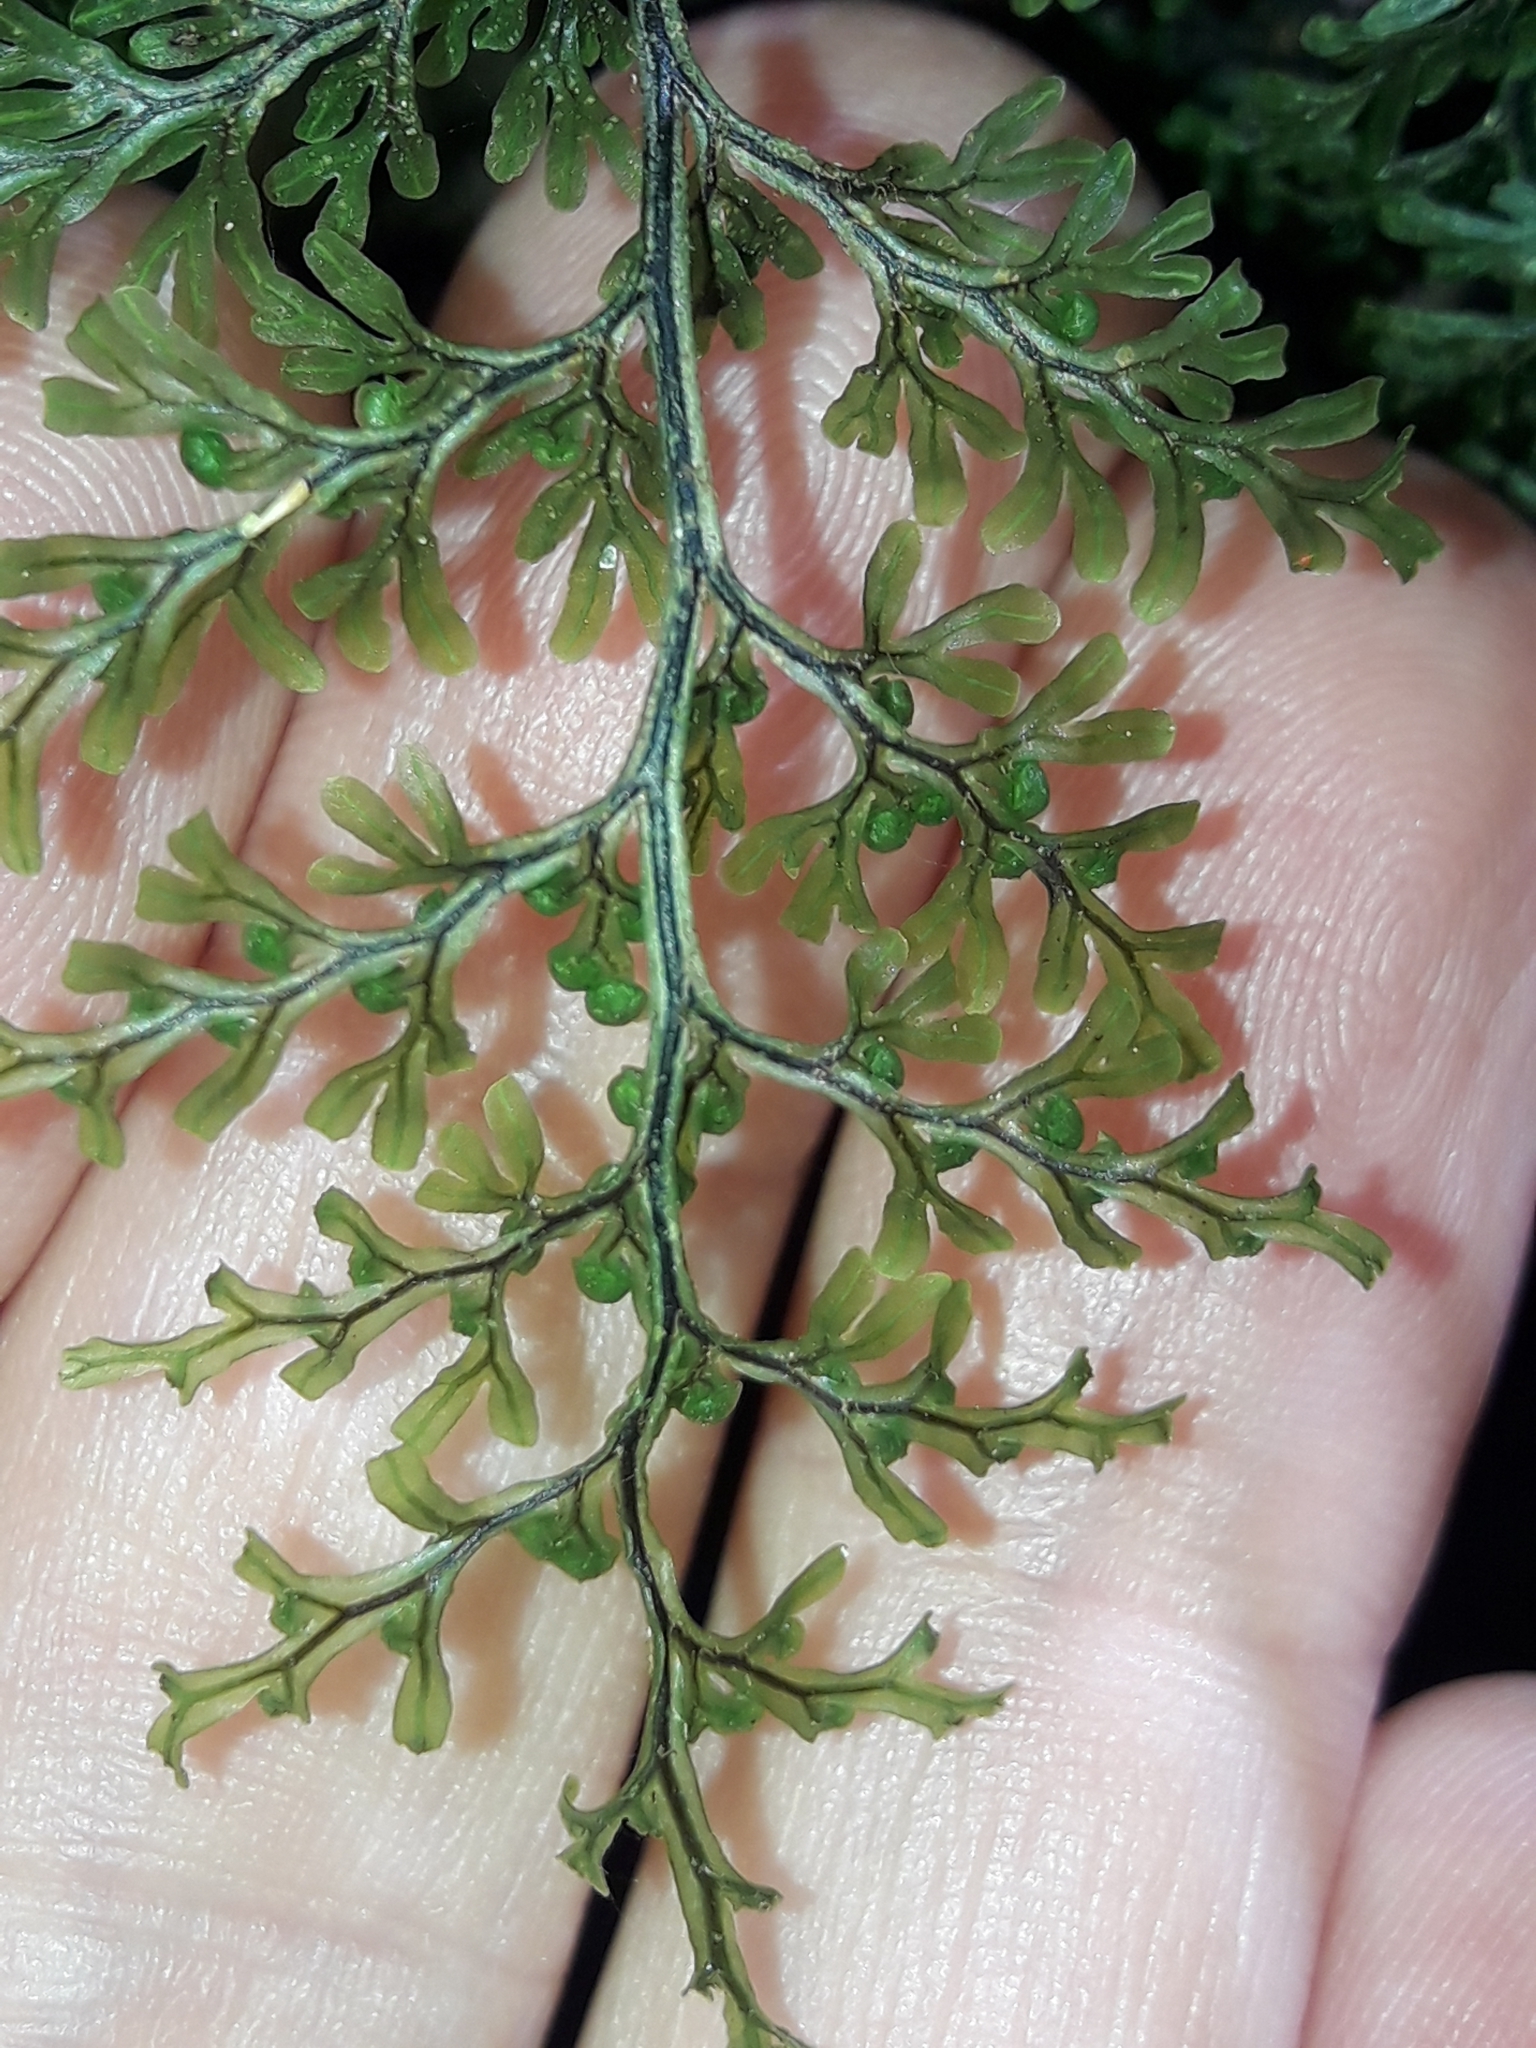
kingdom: Plantae
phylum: Tracheophyta
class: Polypodiopsida
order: Hymenophyllales
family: Hymenophyllaceae
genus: Hymenophyllum
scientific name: Hymenophyllum villosum
